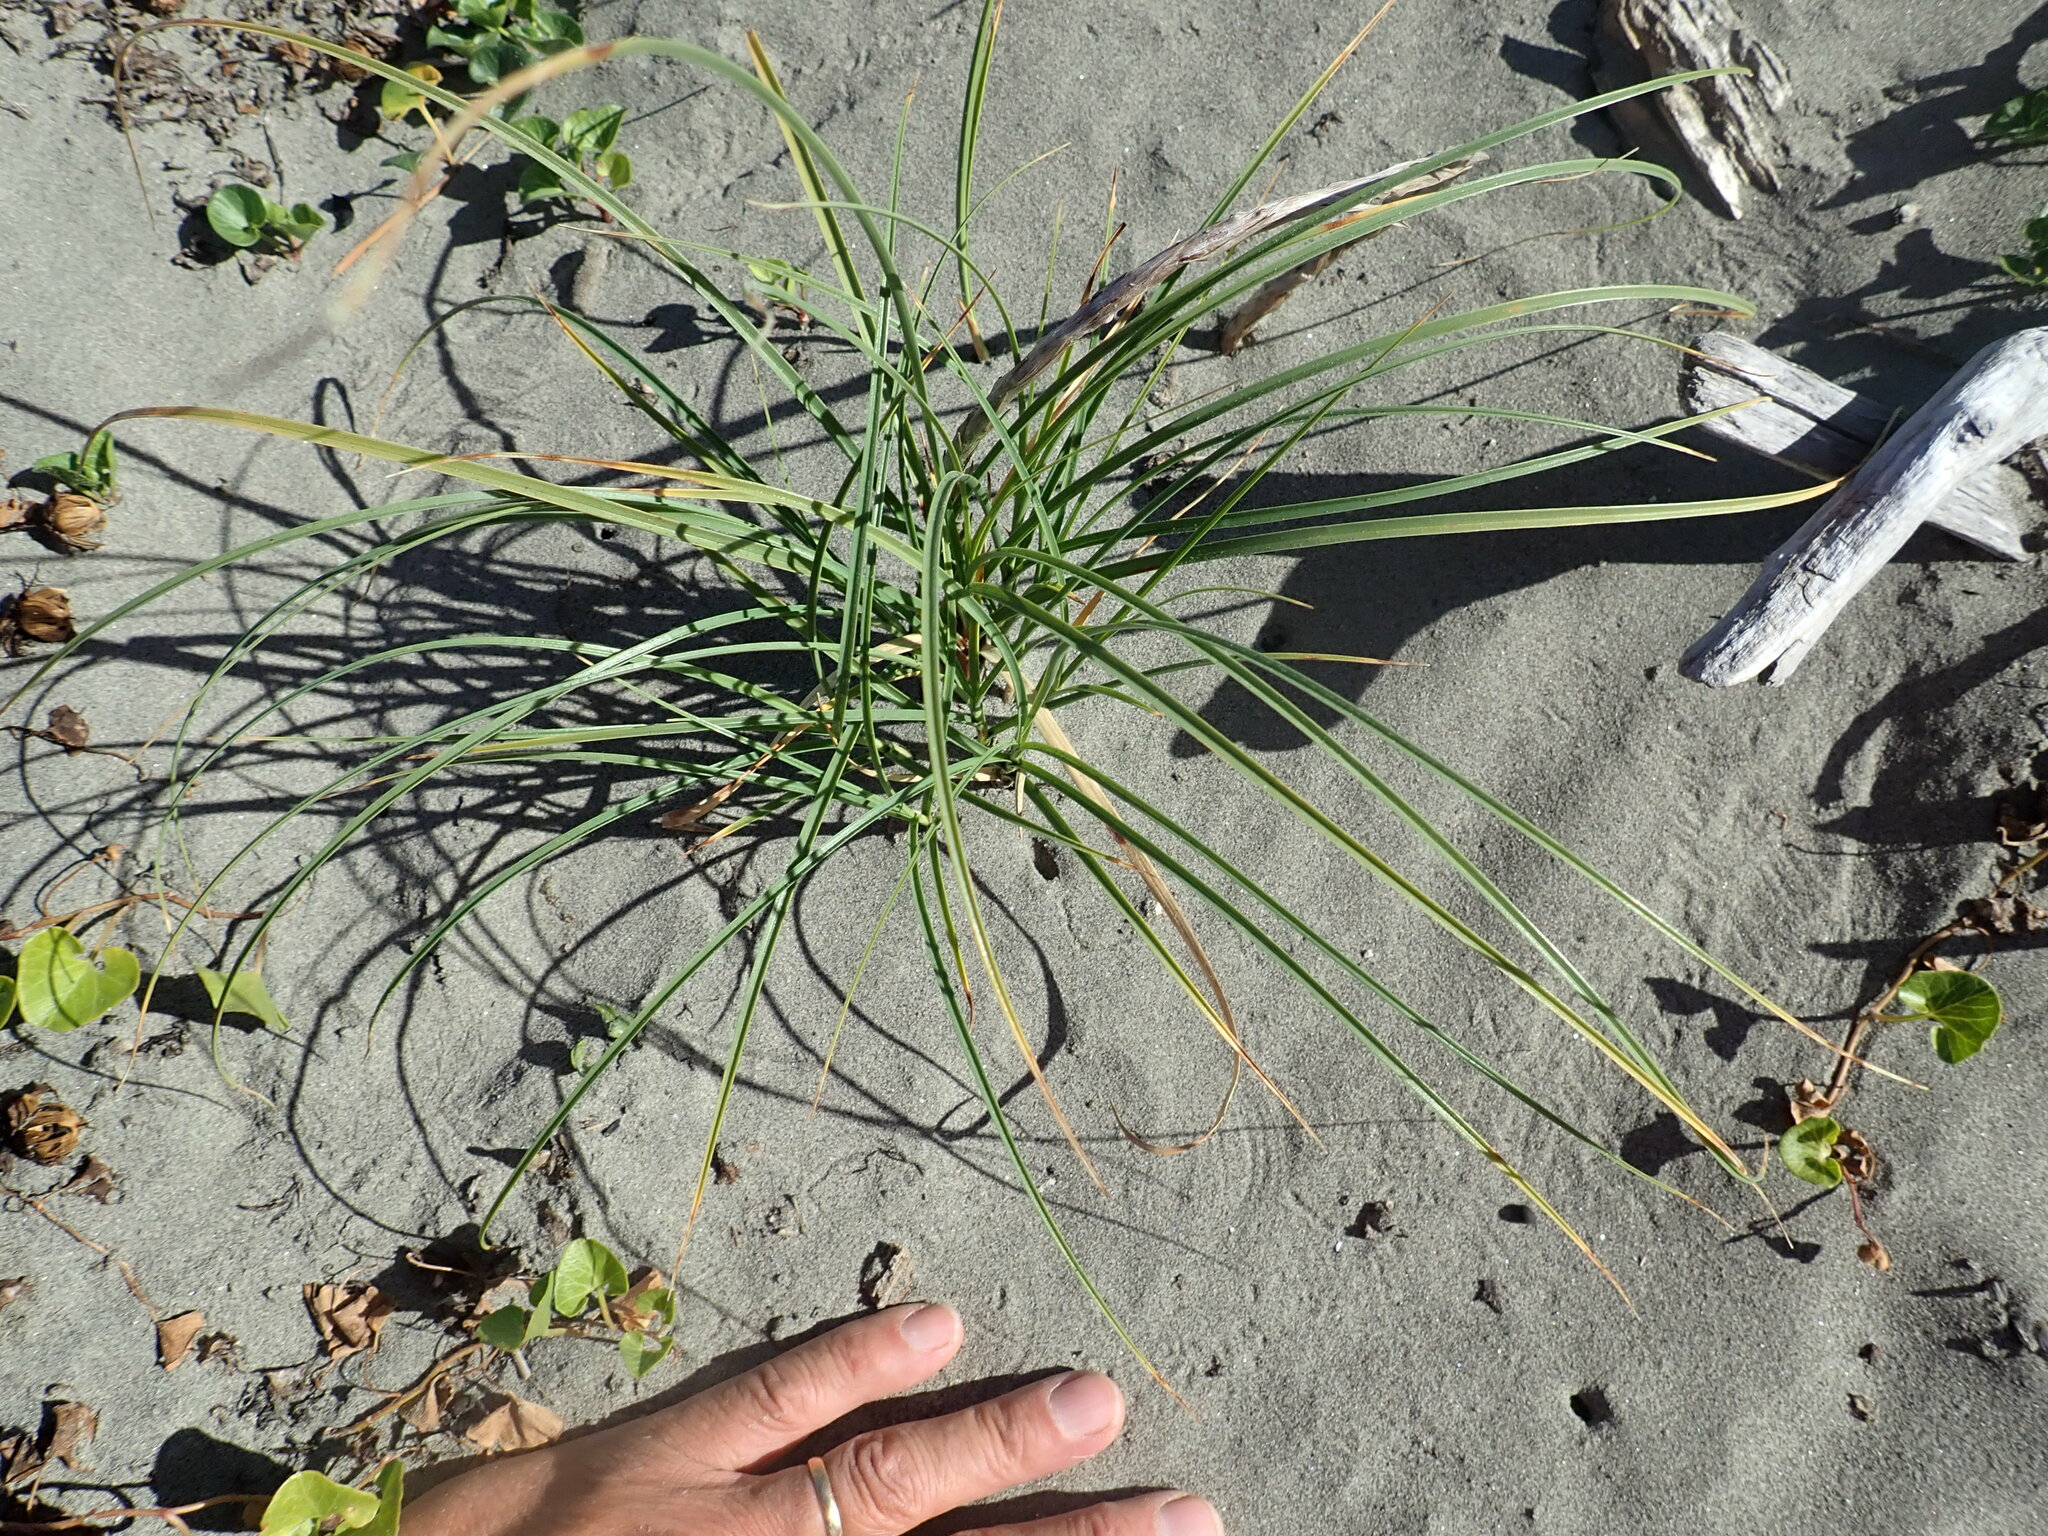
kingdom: Plantae
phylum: Tracheophyta
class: Liliopsida
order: Poales
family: Cyperaceae
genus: Carex
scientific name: Carex pumila
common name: Dwarf sedge
